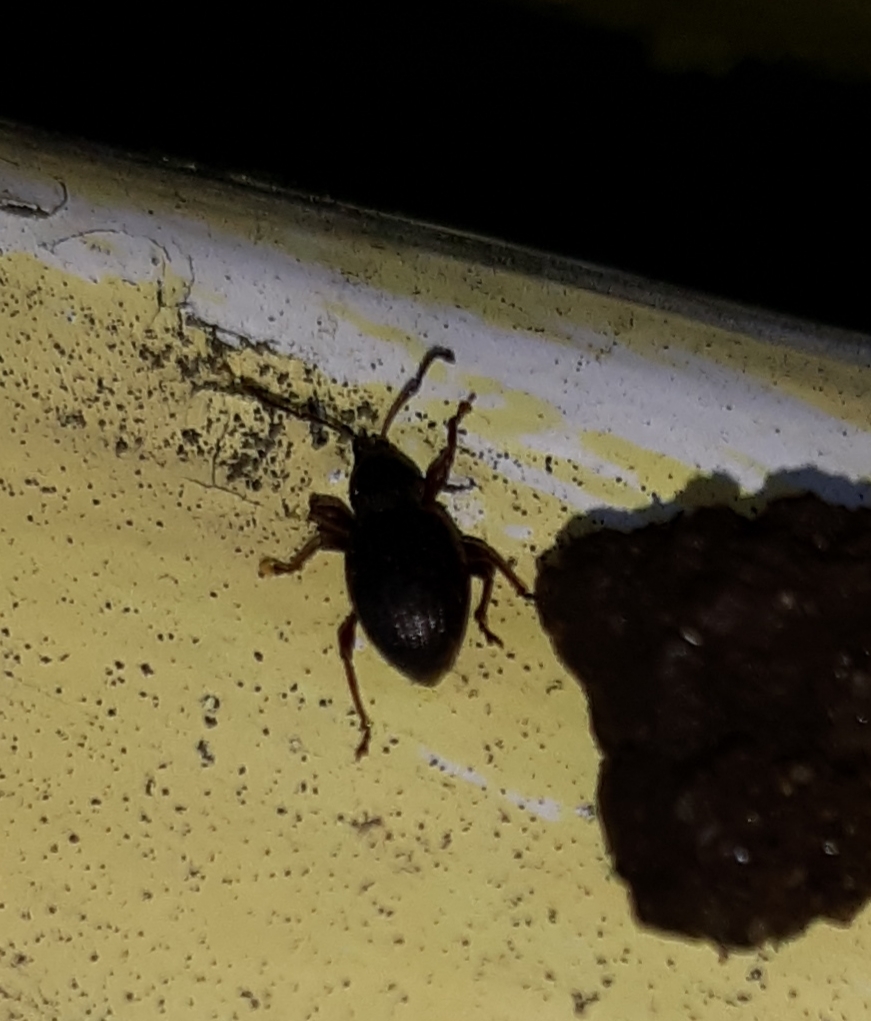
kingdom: Animalia
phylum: Arthropoda
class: Insecta
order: Coleoptera
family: Curculionidae
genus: Otiorhynchus
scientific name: Otiorhynchus ovatus
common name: Strawberry root weevil
